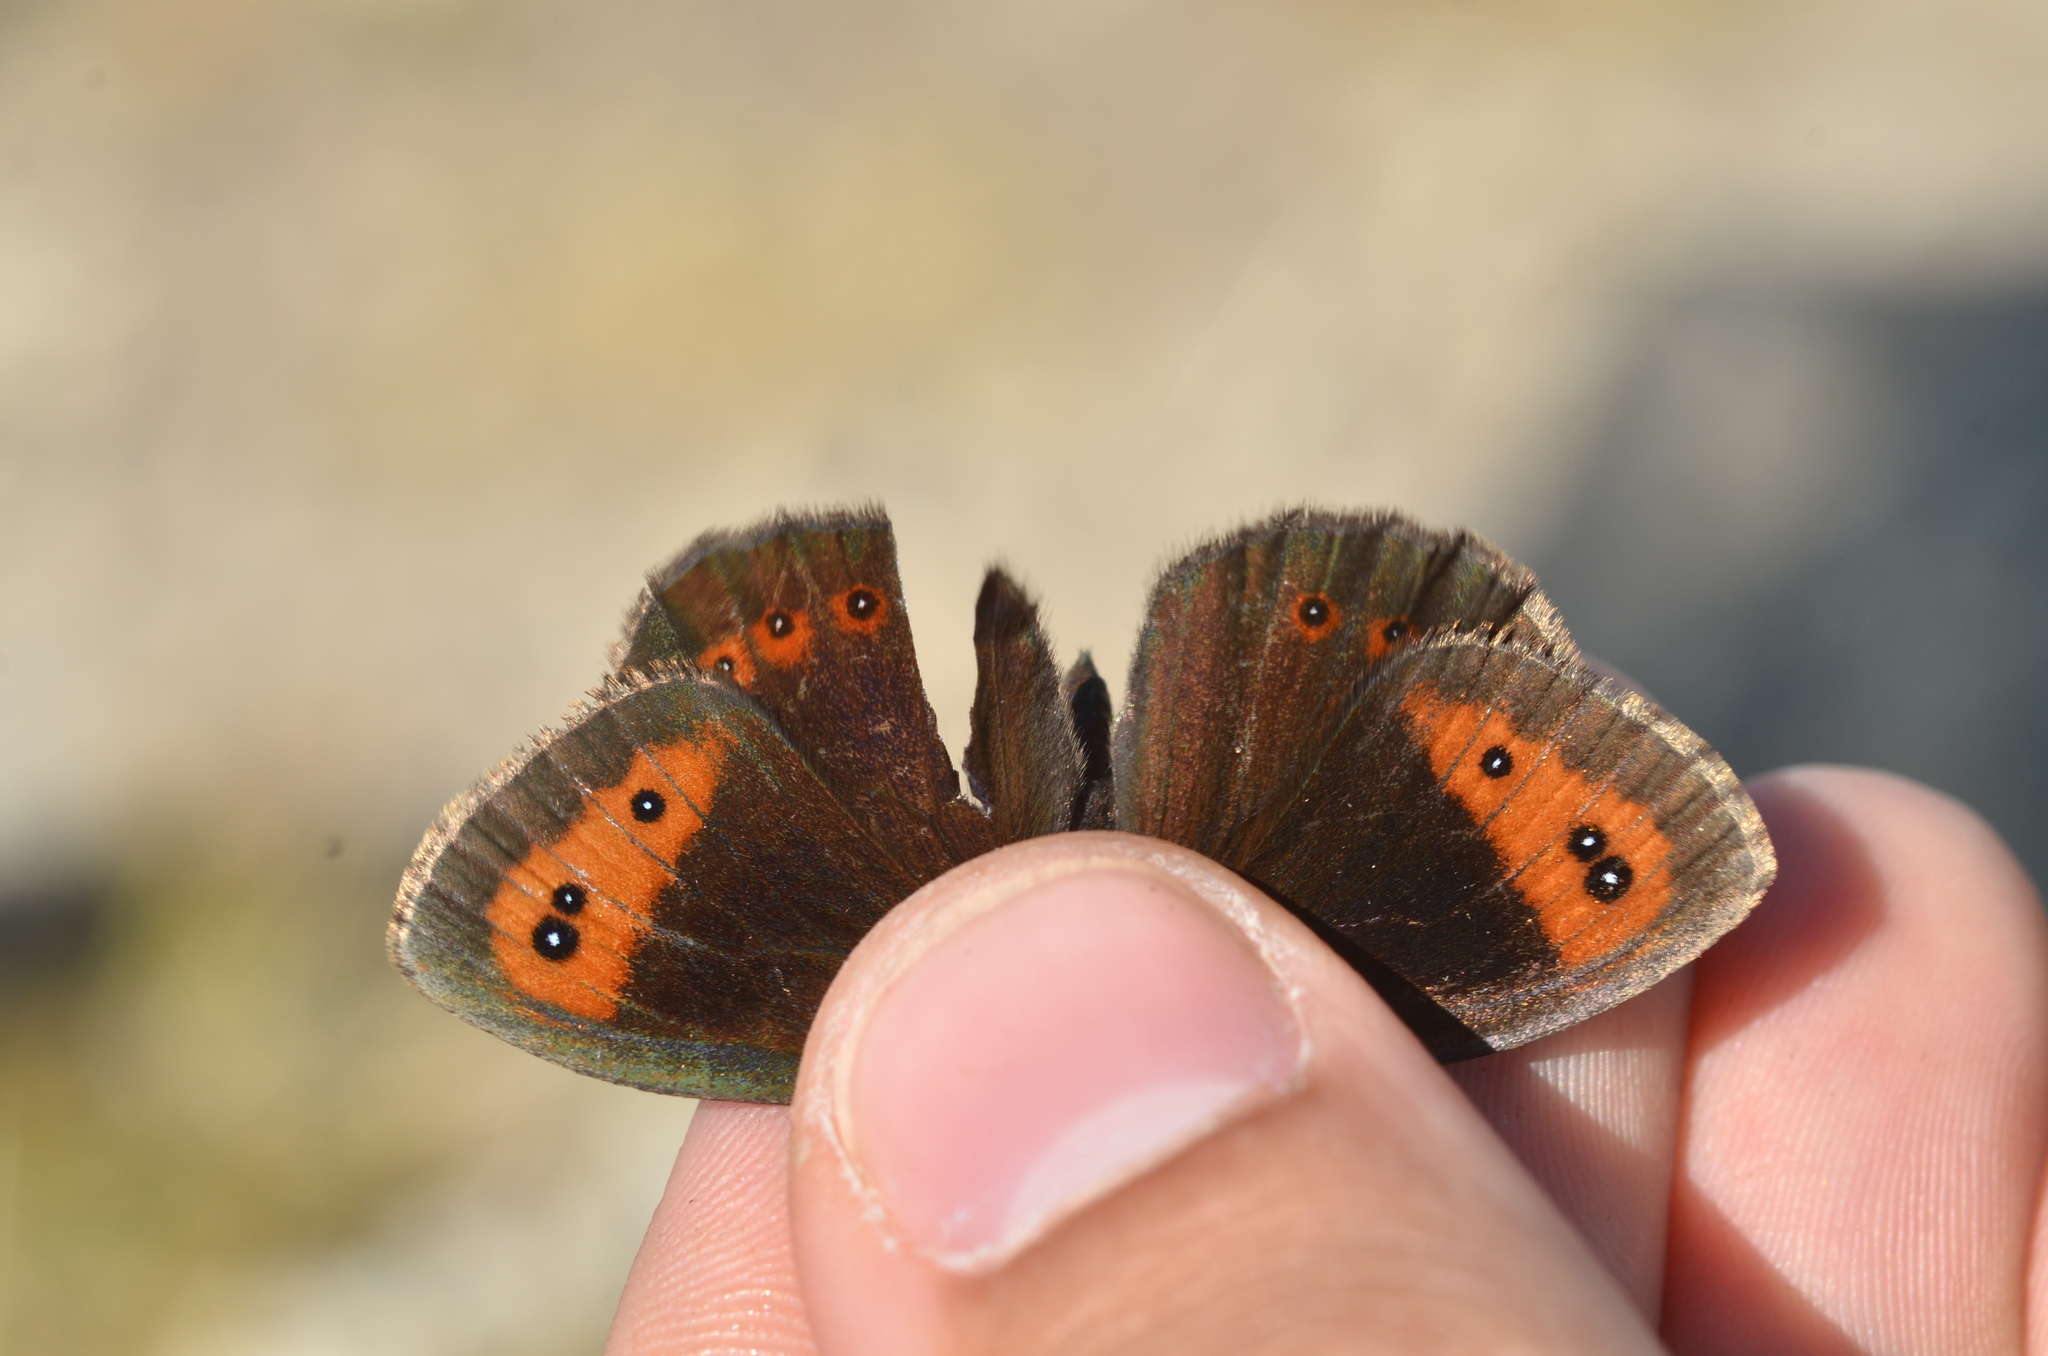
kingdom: Animalia
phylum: Arthropoda
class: Insecta
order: Lepidoptera
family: Nymphalidae
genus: Erebia
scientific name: Erebia neoridas
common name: Autumn ringlet
